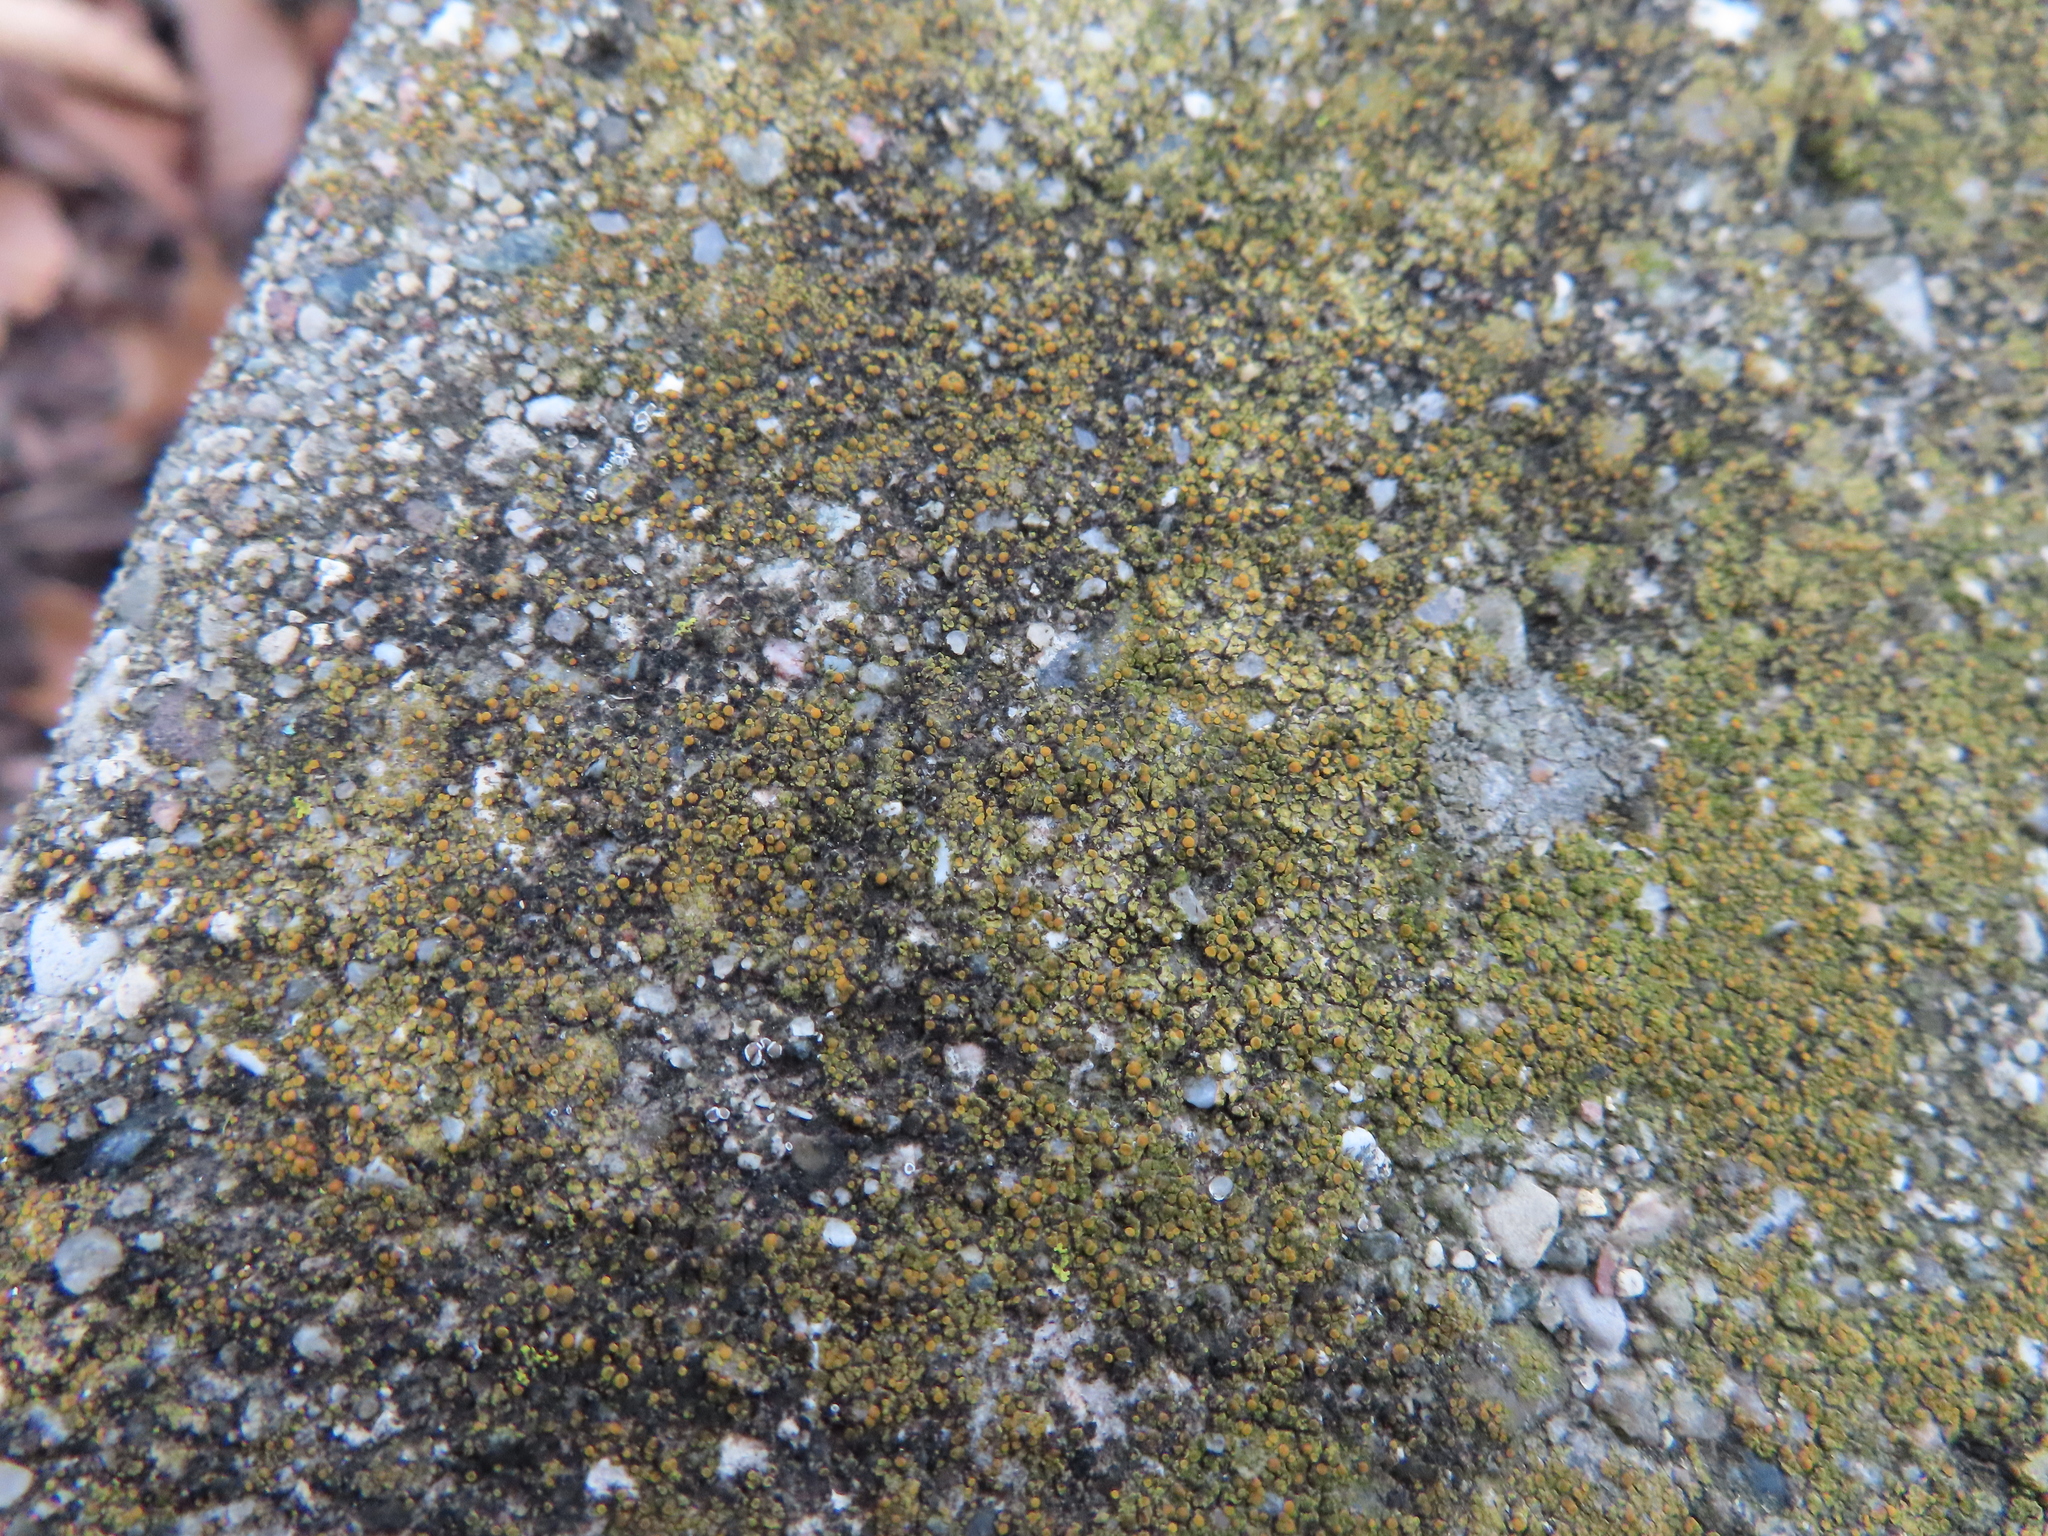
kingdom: Fungi
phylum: Ascomycota
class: Lecanoromycetes
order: Teloschistales
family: Teloschistaceae
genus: Xanthocarpia
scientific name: Xanthocarpia feracissima
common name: Sidewalk firedot
